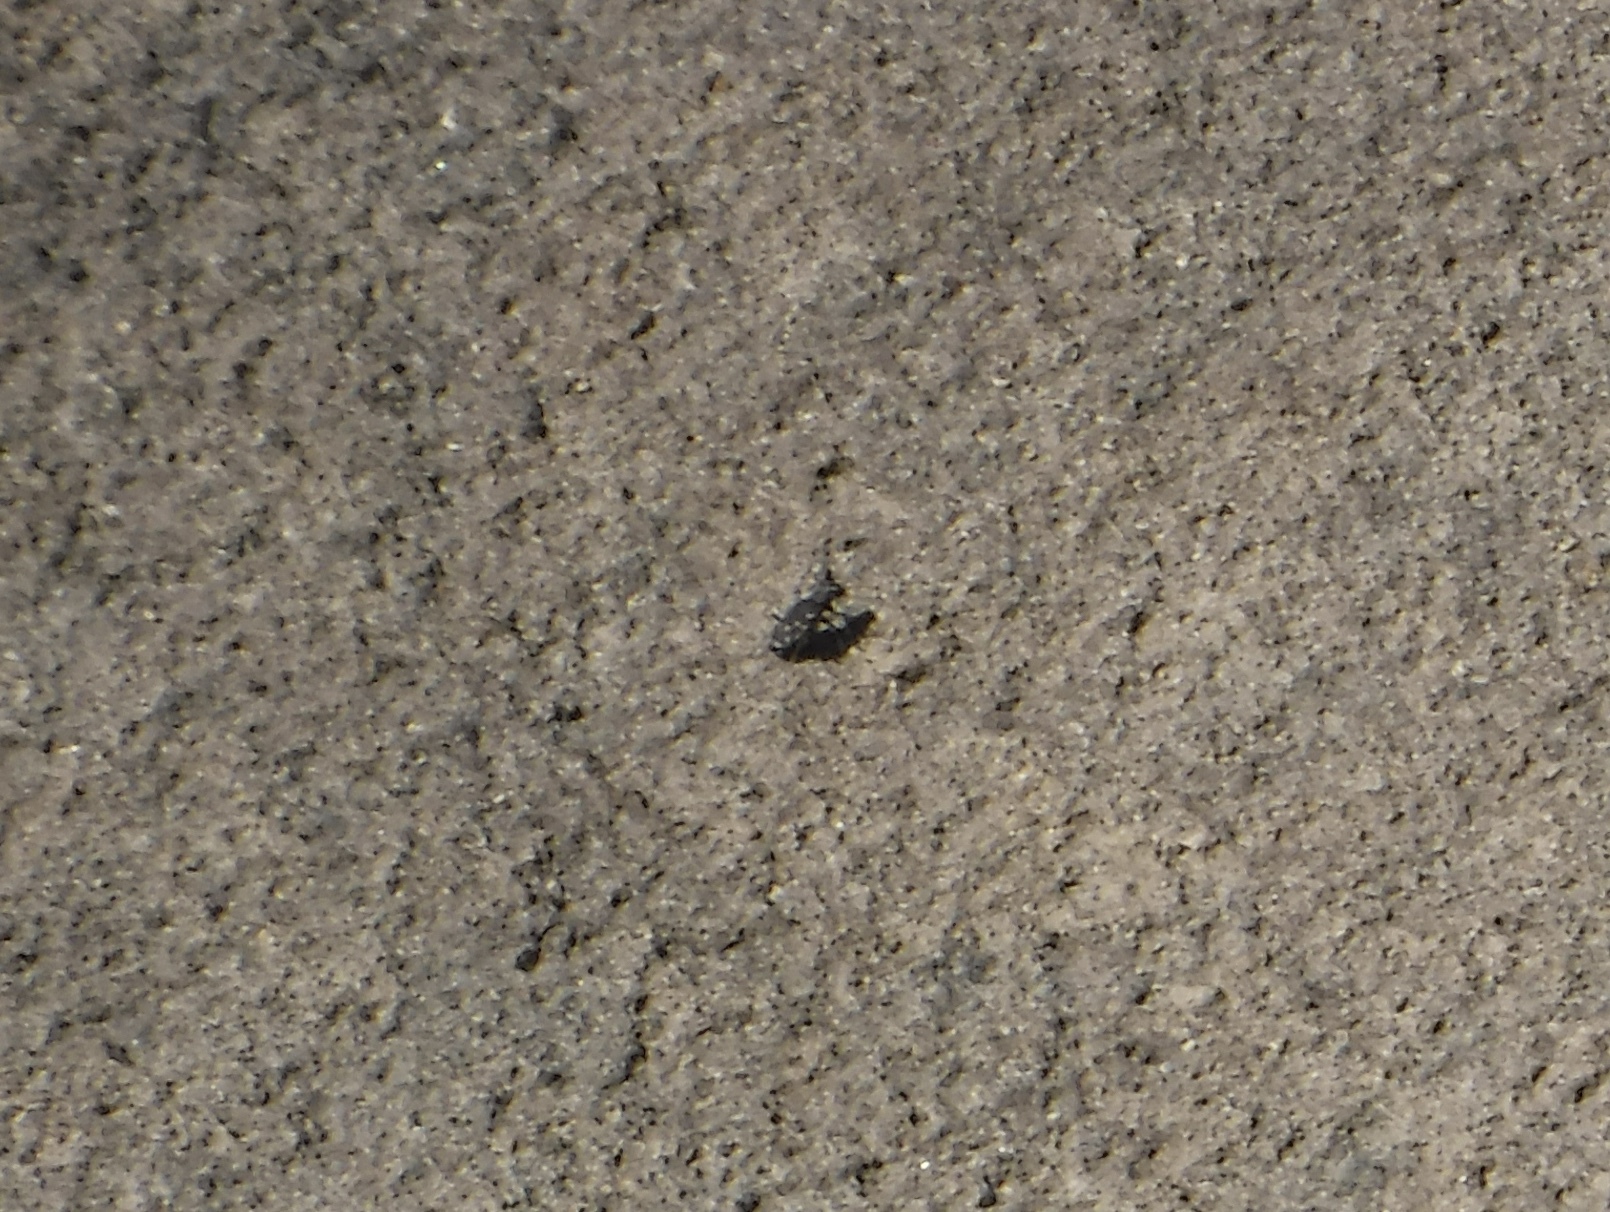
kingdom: Animalia
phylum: Arthropoda
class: Insecta
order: Coleoptera
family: Carabidae
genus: Cicindela
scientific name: Cicindela repanda
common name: Bronzed tiger beetle
